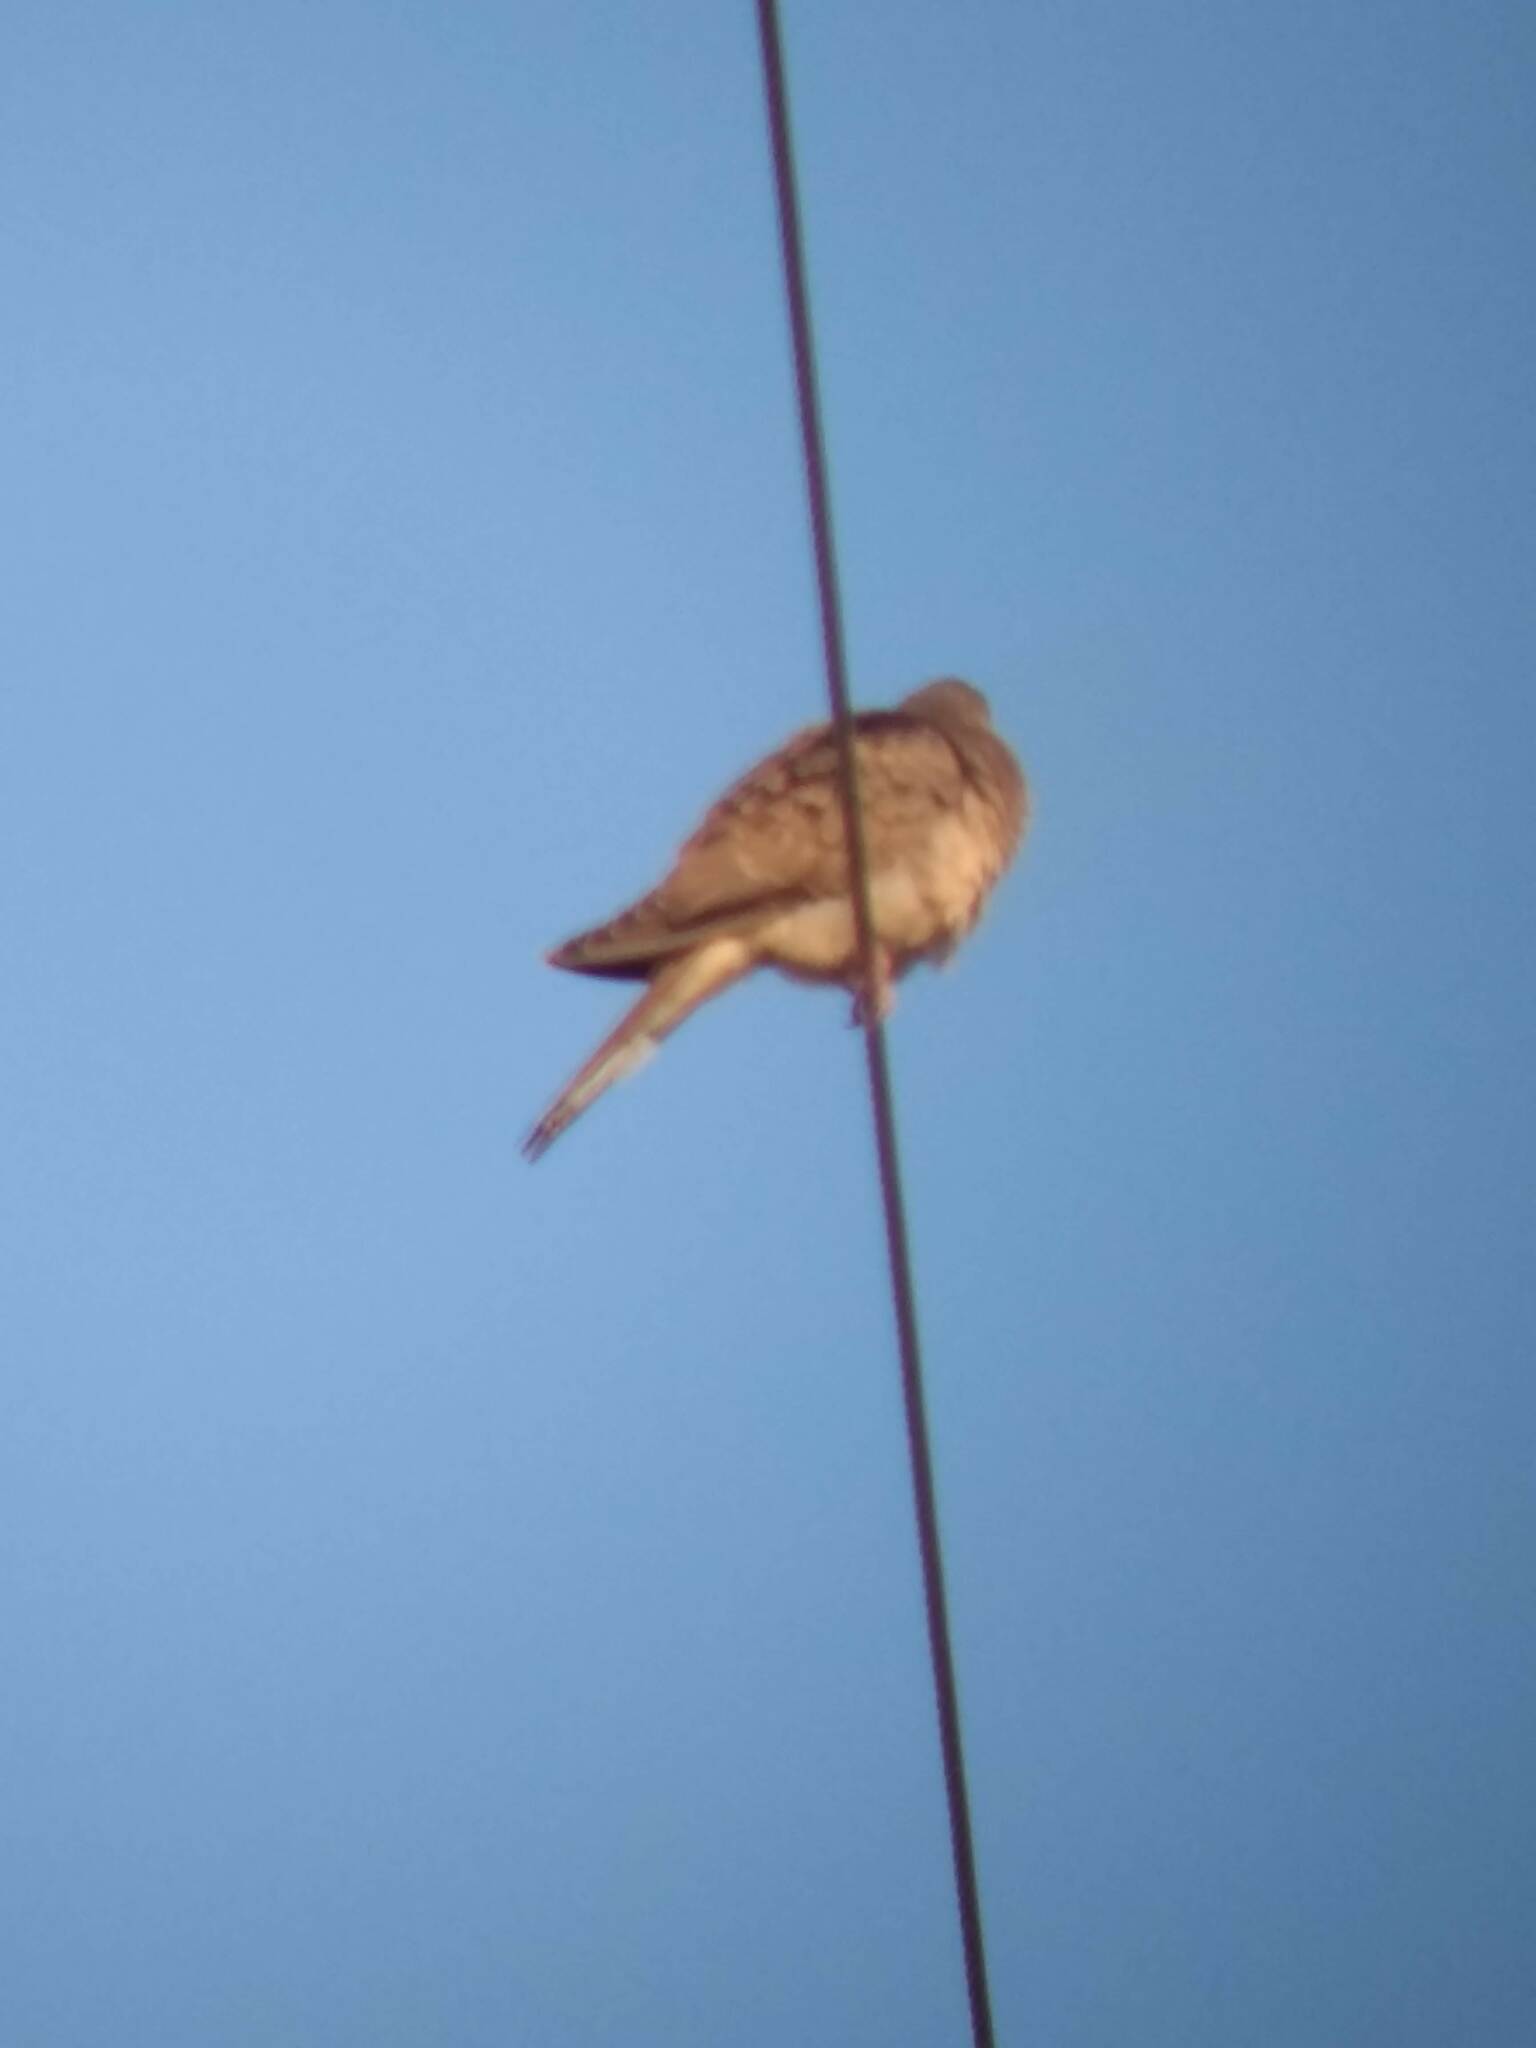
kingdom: Animalia
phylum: Chordata
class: Aves
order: Columbiformes
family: Columbidae
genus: Zenaida
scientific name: Zenaida macroura
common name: Mourning dove
